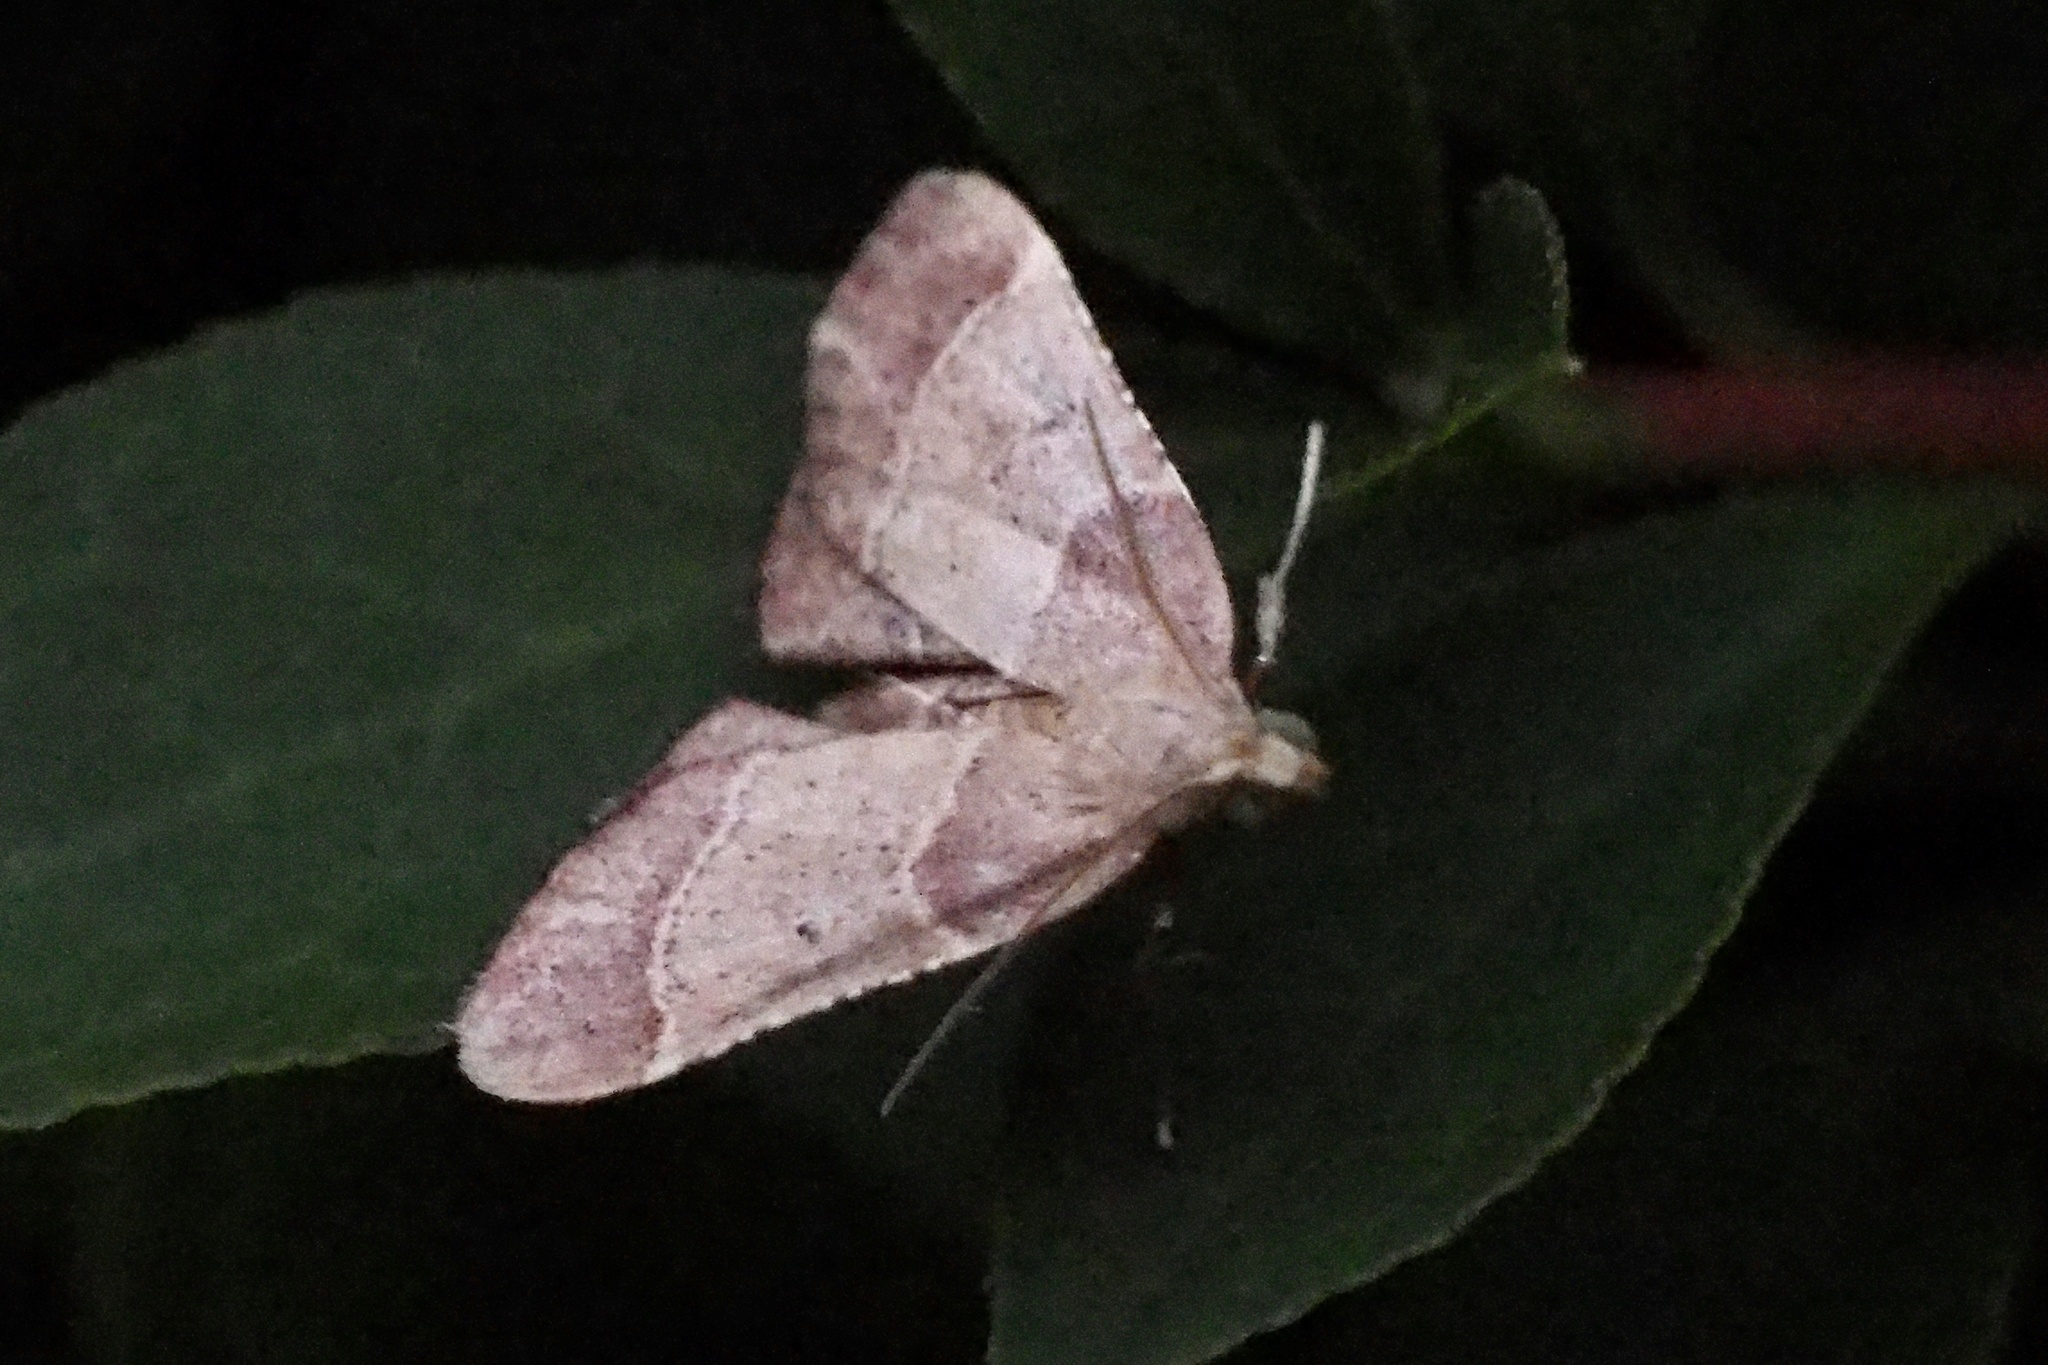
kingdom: Animalia
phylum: Arthropoda
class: Insecta
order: Lepidoptera
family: Pyralidae
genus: Arippara
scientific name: Arippara indicator
